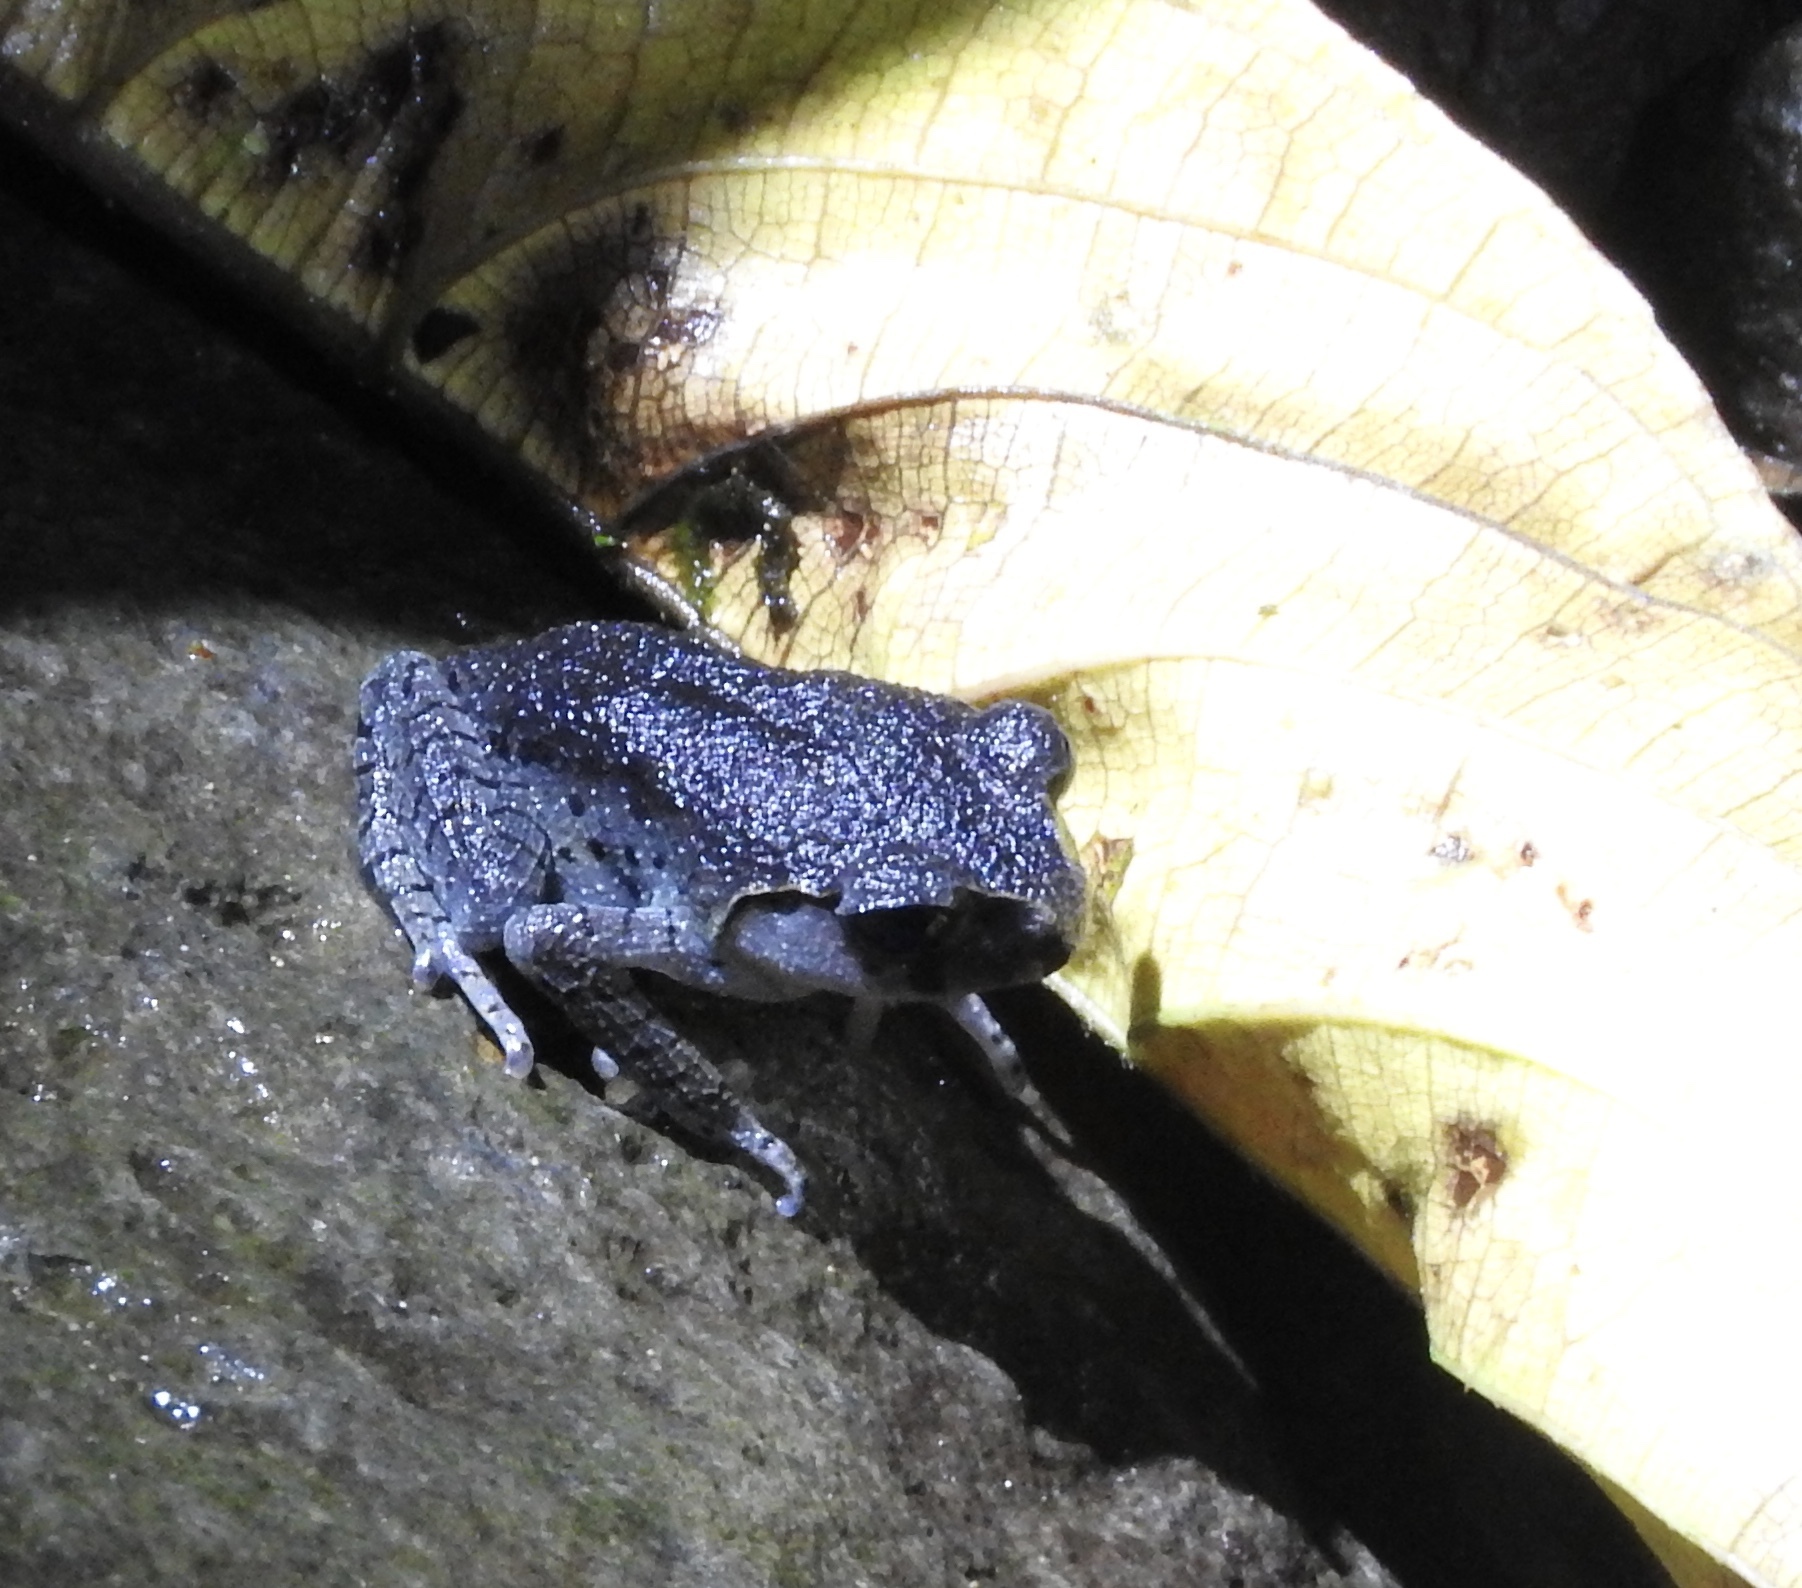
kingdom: Animalia
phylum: Chordata
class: Amphibia
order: Anura
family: Megophryidae
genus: Leptobrachium
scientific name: Leptobrachium hasseltii
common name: Hasselt's litter frog
